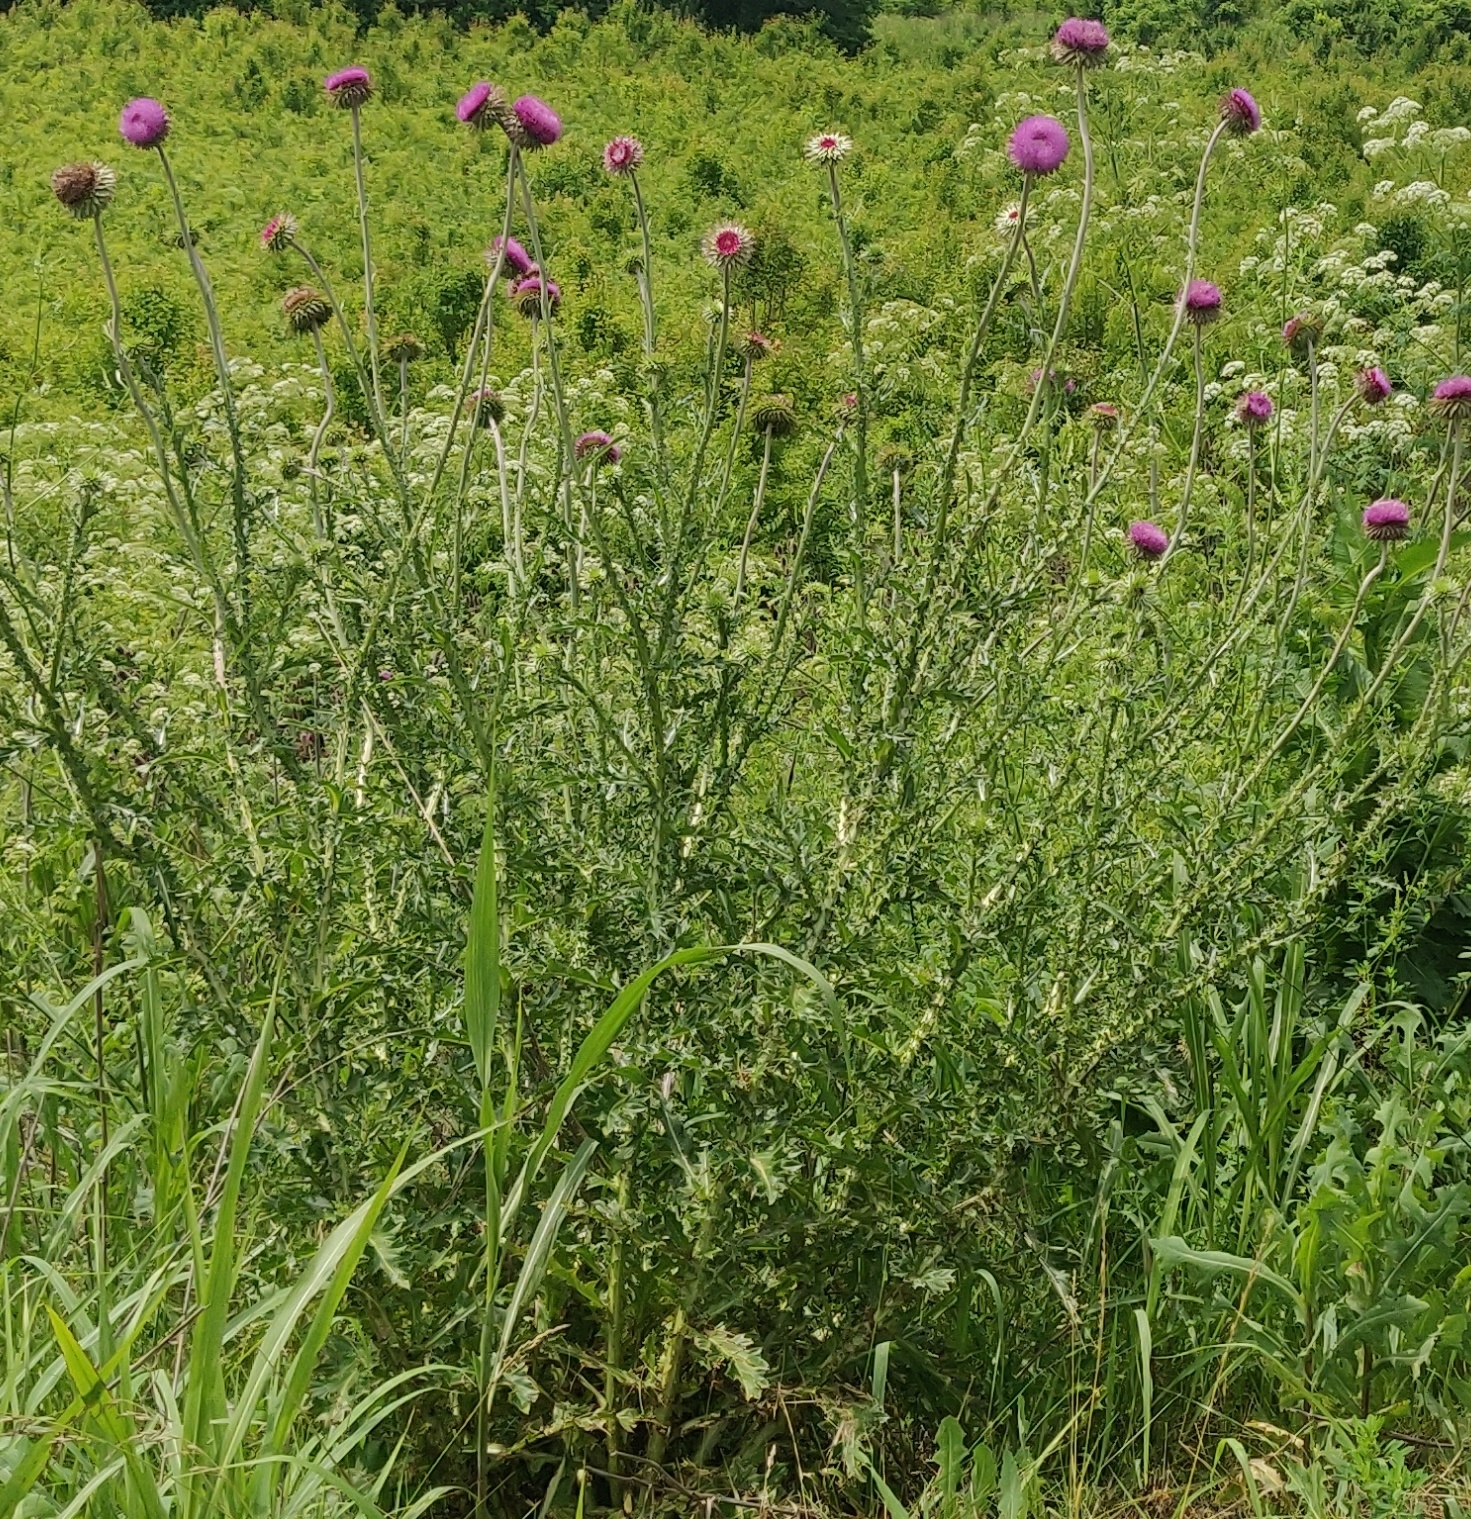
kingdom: Plantae
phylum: Tracheophyta
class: Magnoliopsida
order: Asterales
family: Asteraceae
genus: Carduus
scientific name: Carduus nutans
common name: Musk thistle
